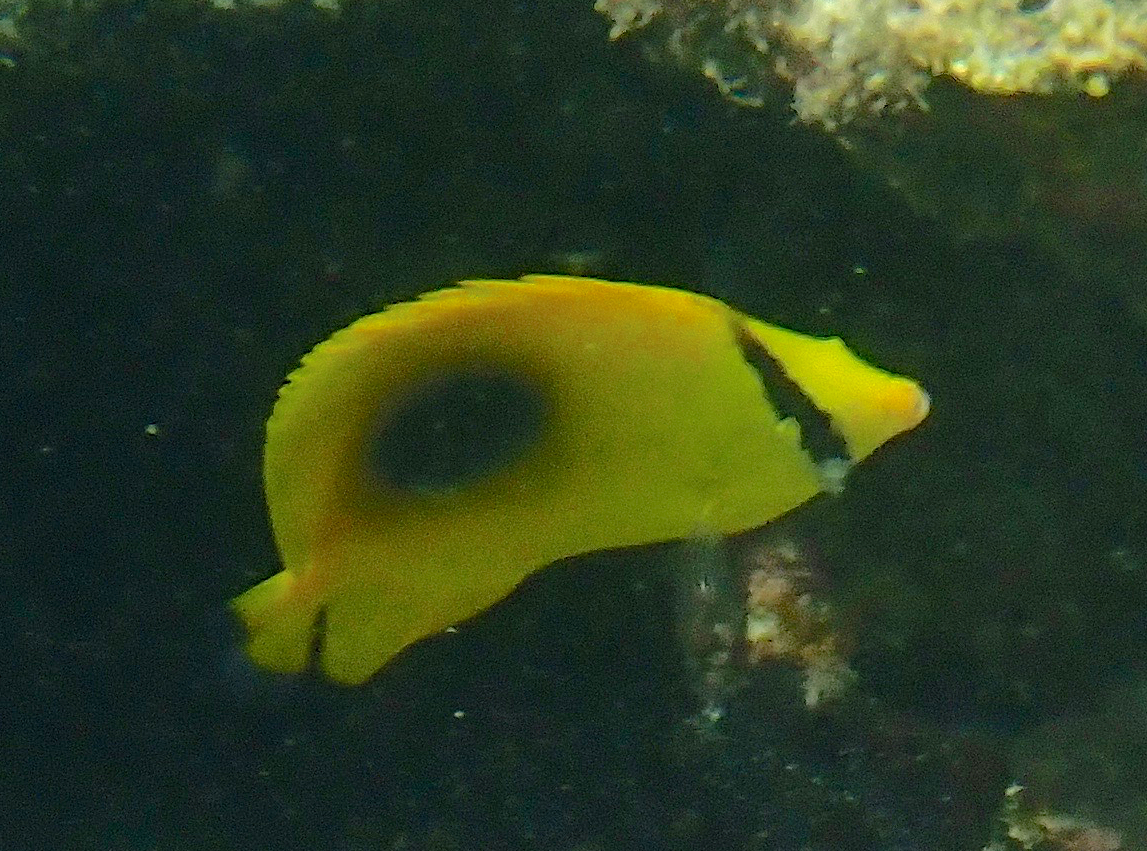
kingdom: Animalia
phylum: Chordata
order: Perciformes
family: Chaetodontidae
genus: Chaetodon
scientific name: Chaetodon speculum
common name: Mirror butterflyfish
